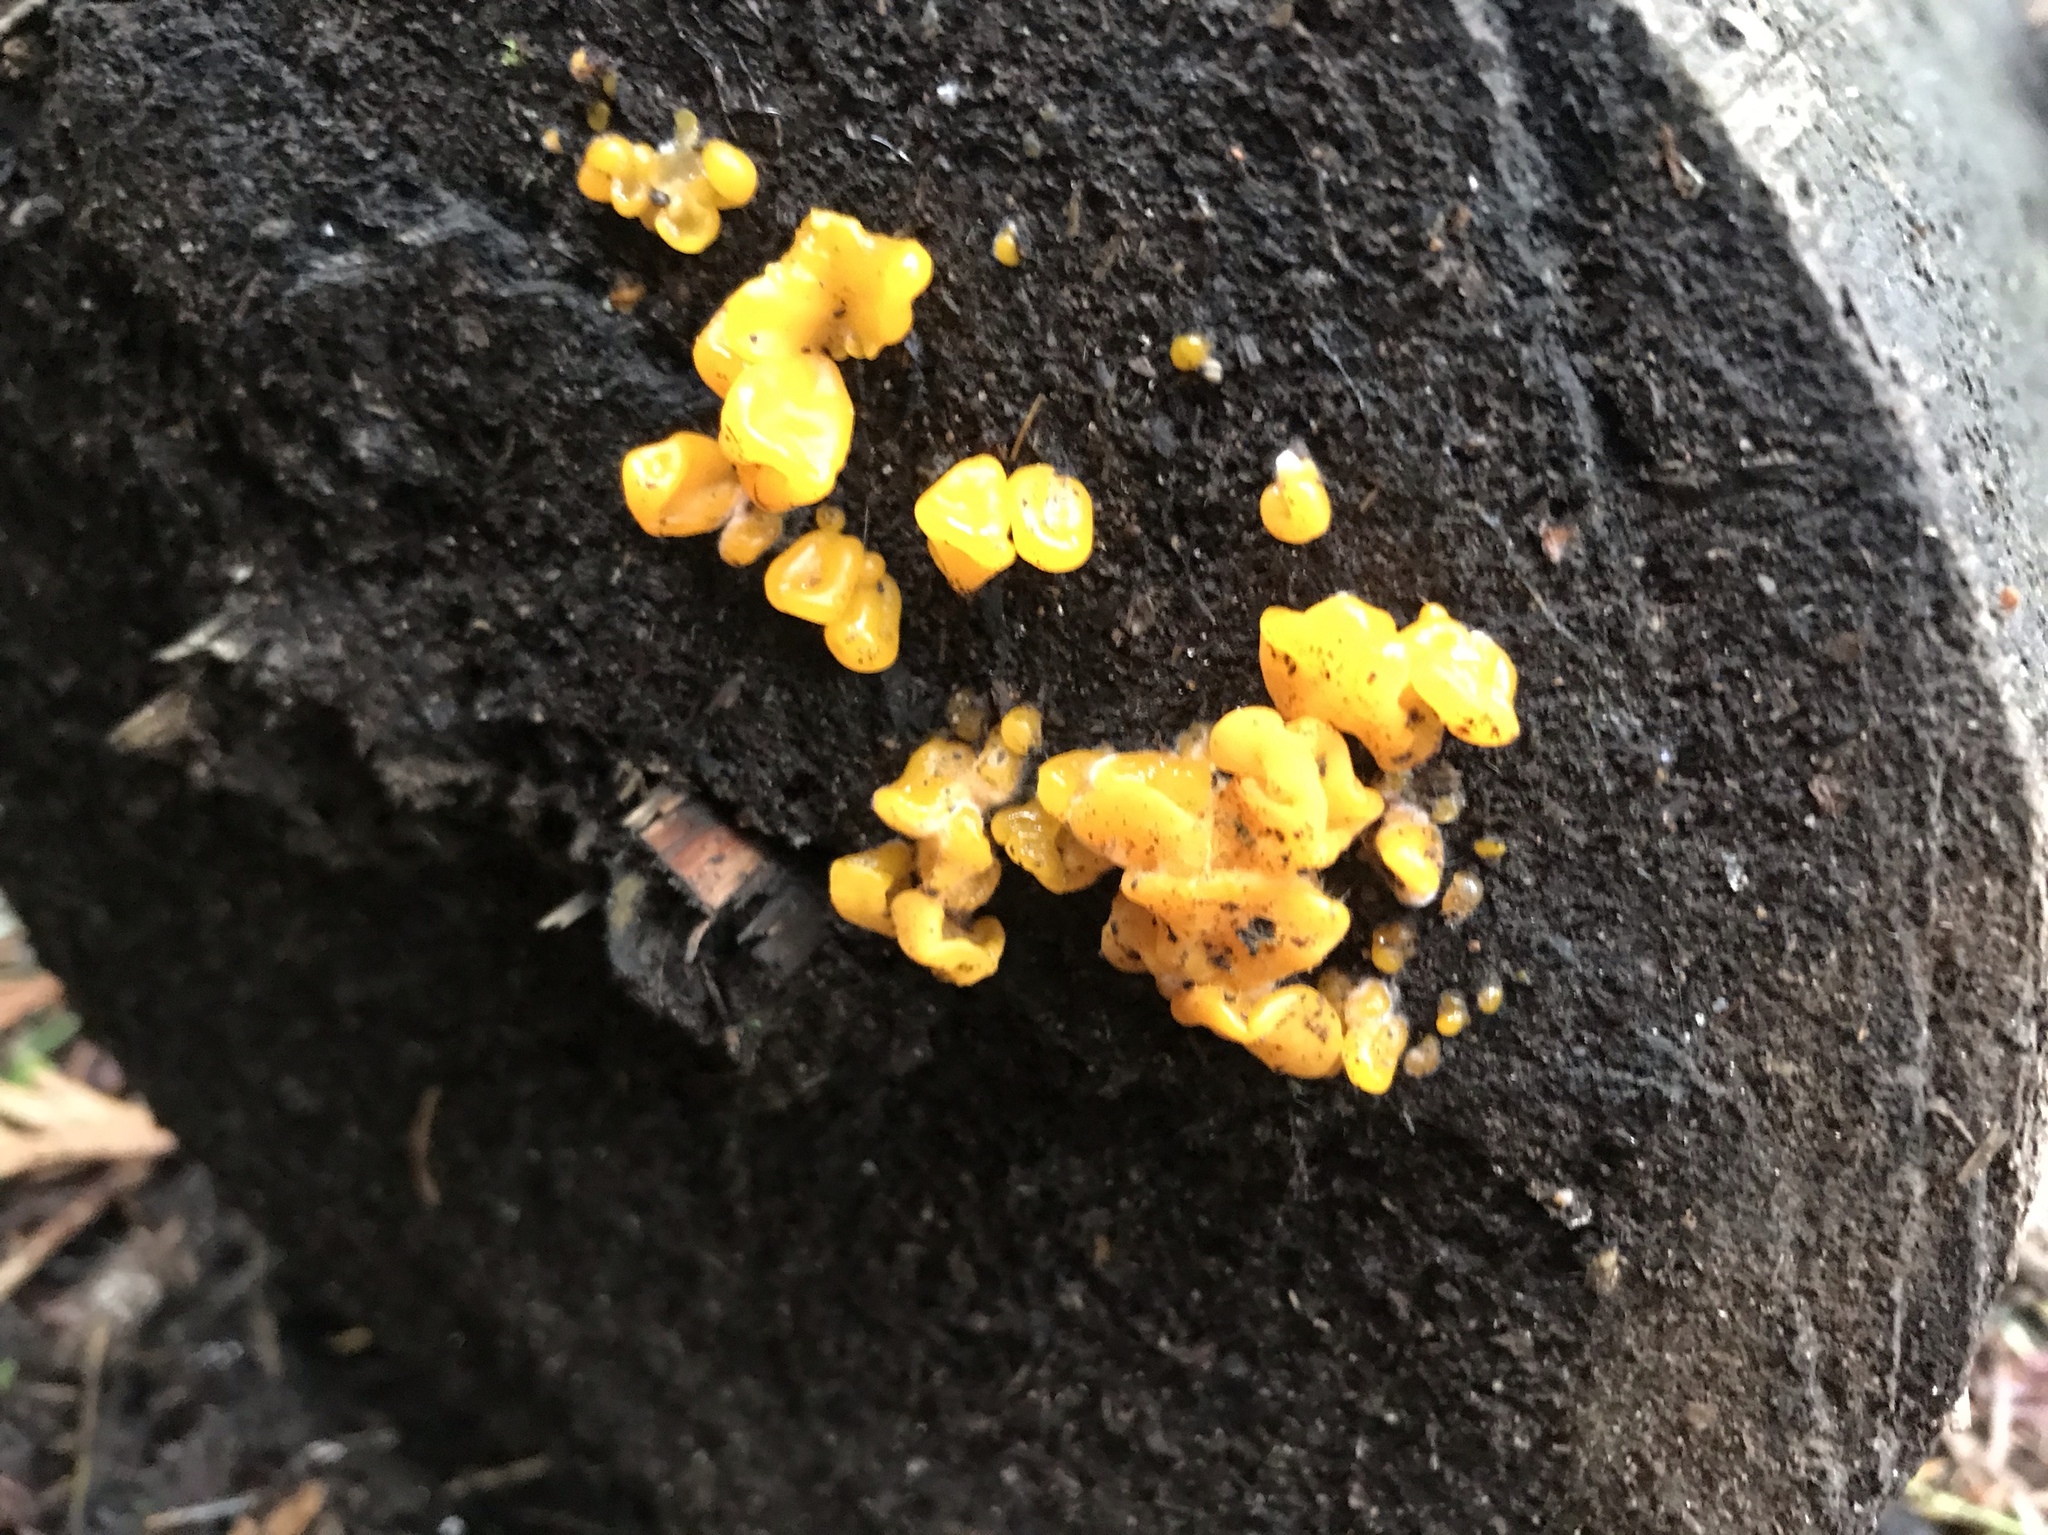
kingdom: Fungi
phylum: Basidiomycota
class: Dacrymycetes
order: Dacrymycetales
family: Dacrymycetaceae
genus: Dacrymyces
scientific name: Dacrymyces chrysospermus
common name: Orange jelly spot
